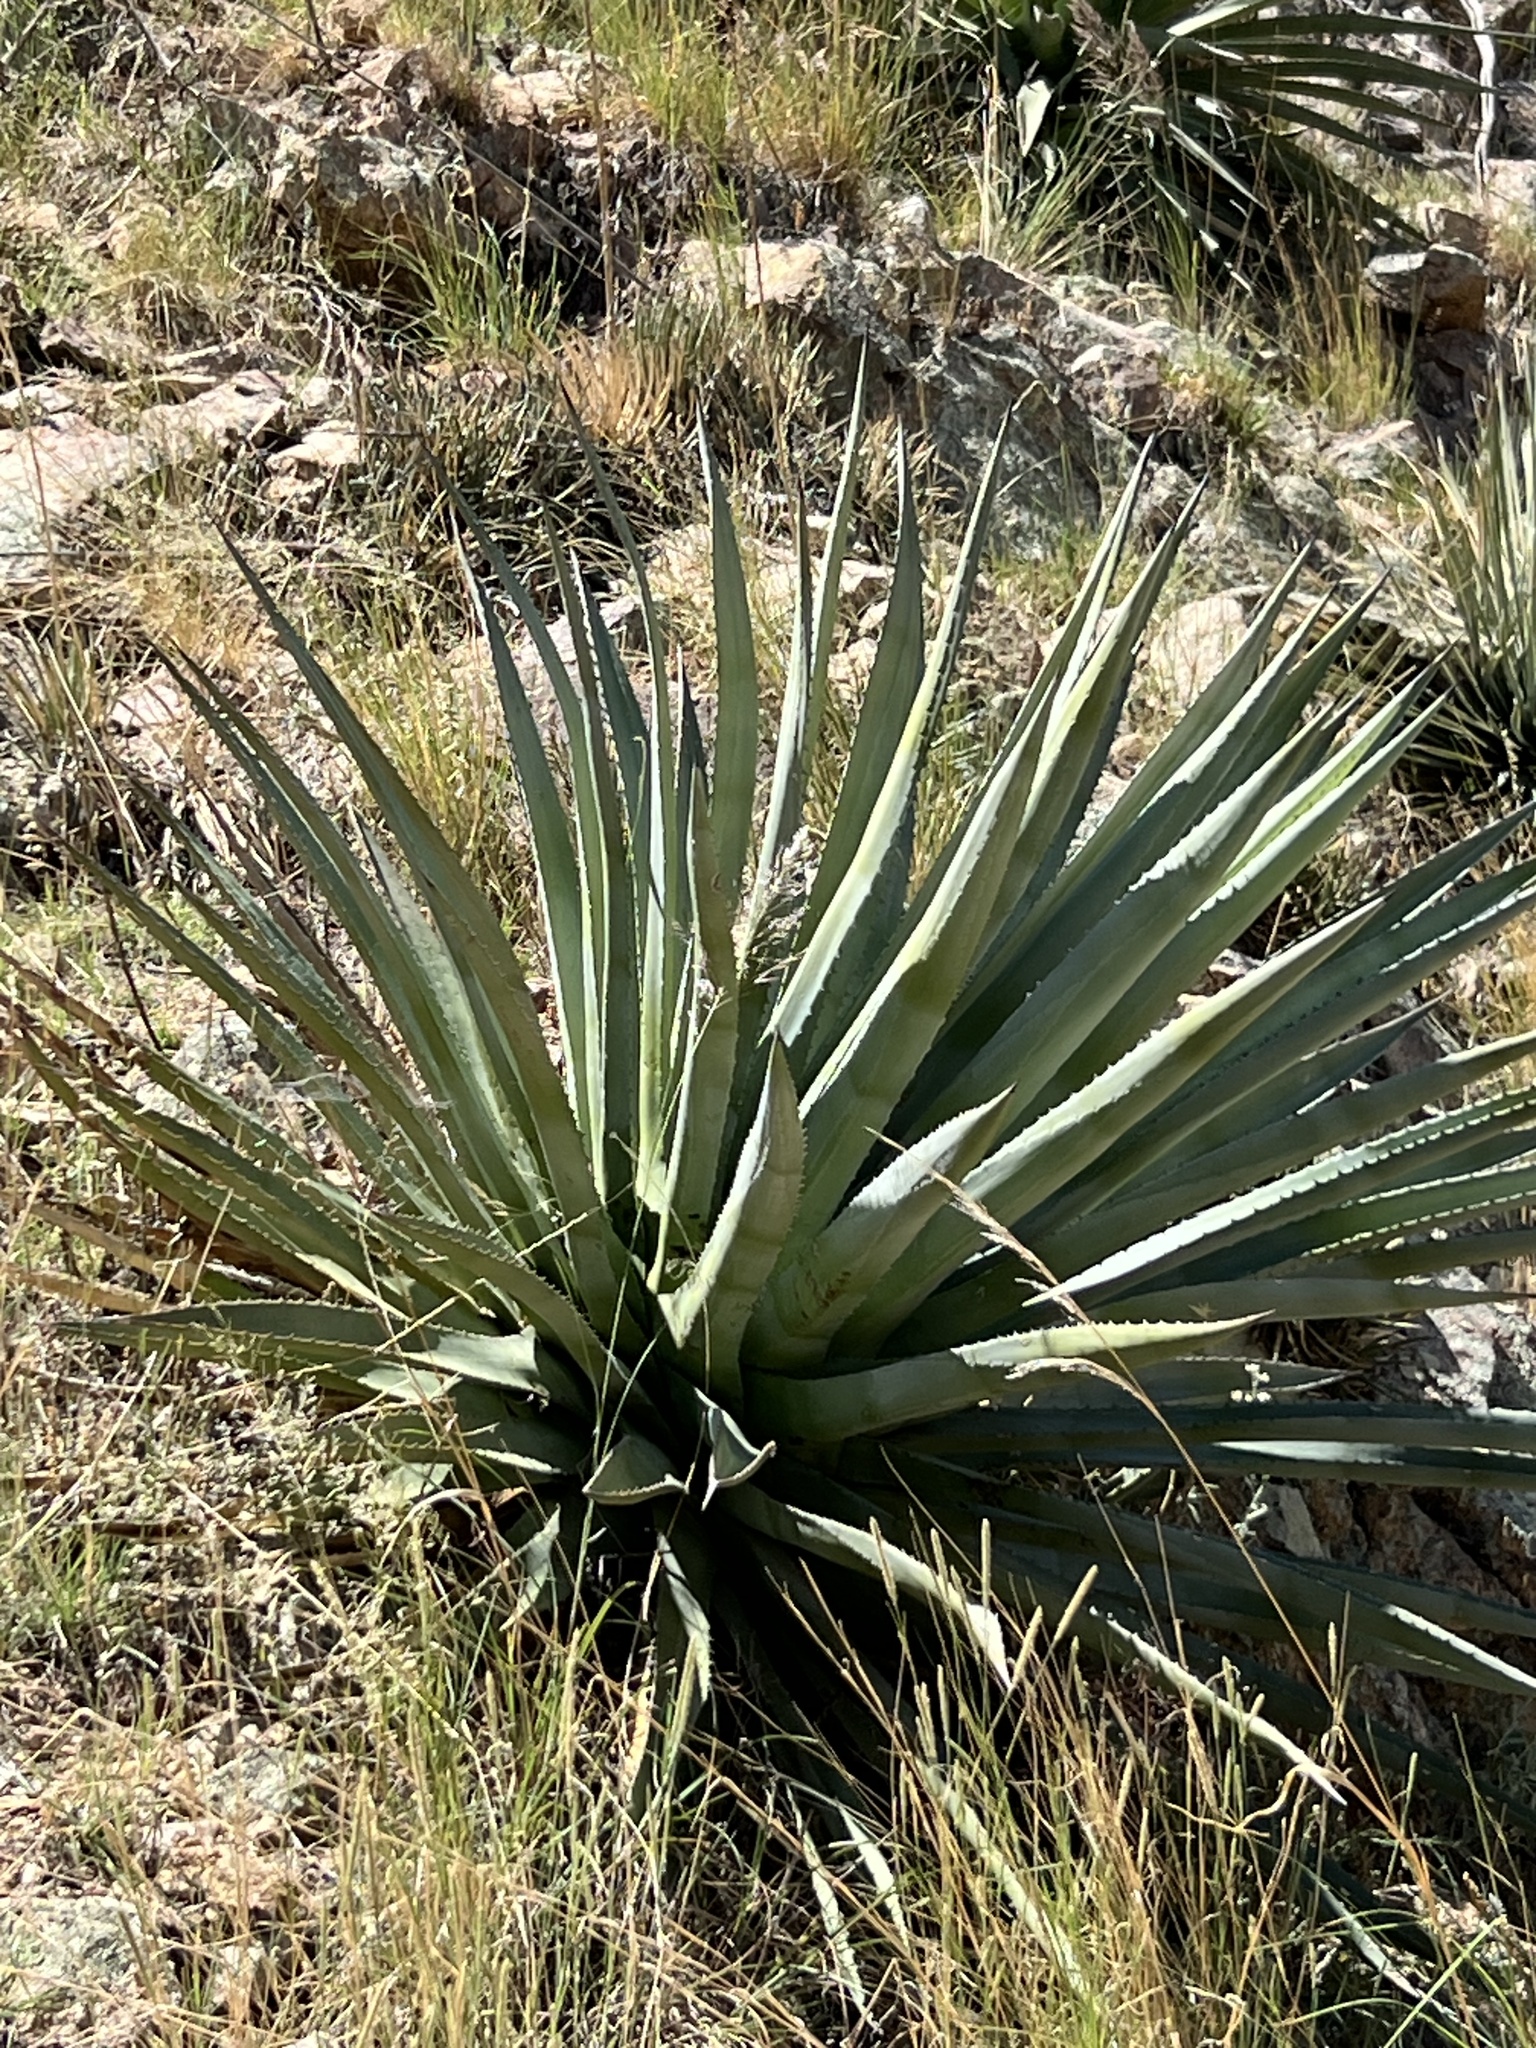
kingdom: Plantae
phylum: Tracheophyta
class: Liliopsida
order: Asparagales
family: Asparagaceae
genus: Agave
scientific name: Agave palmeri
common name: Palmer agave
